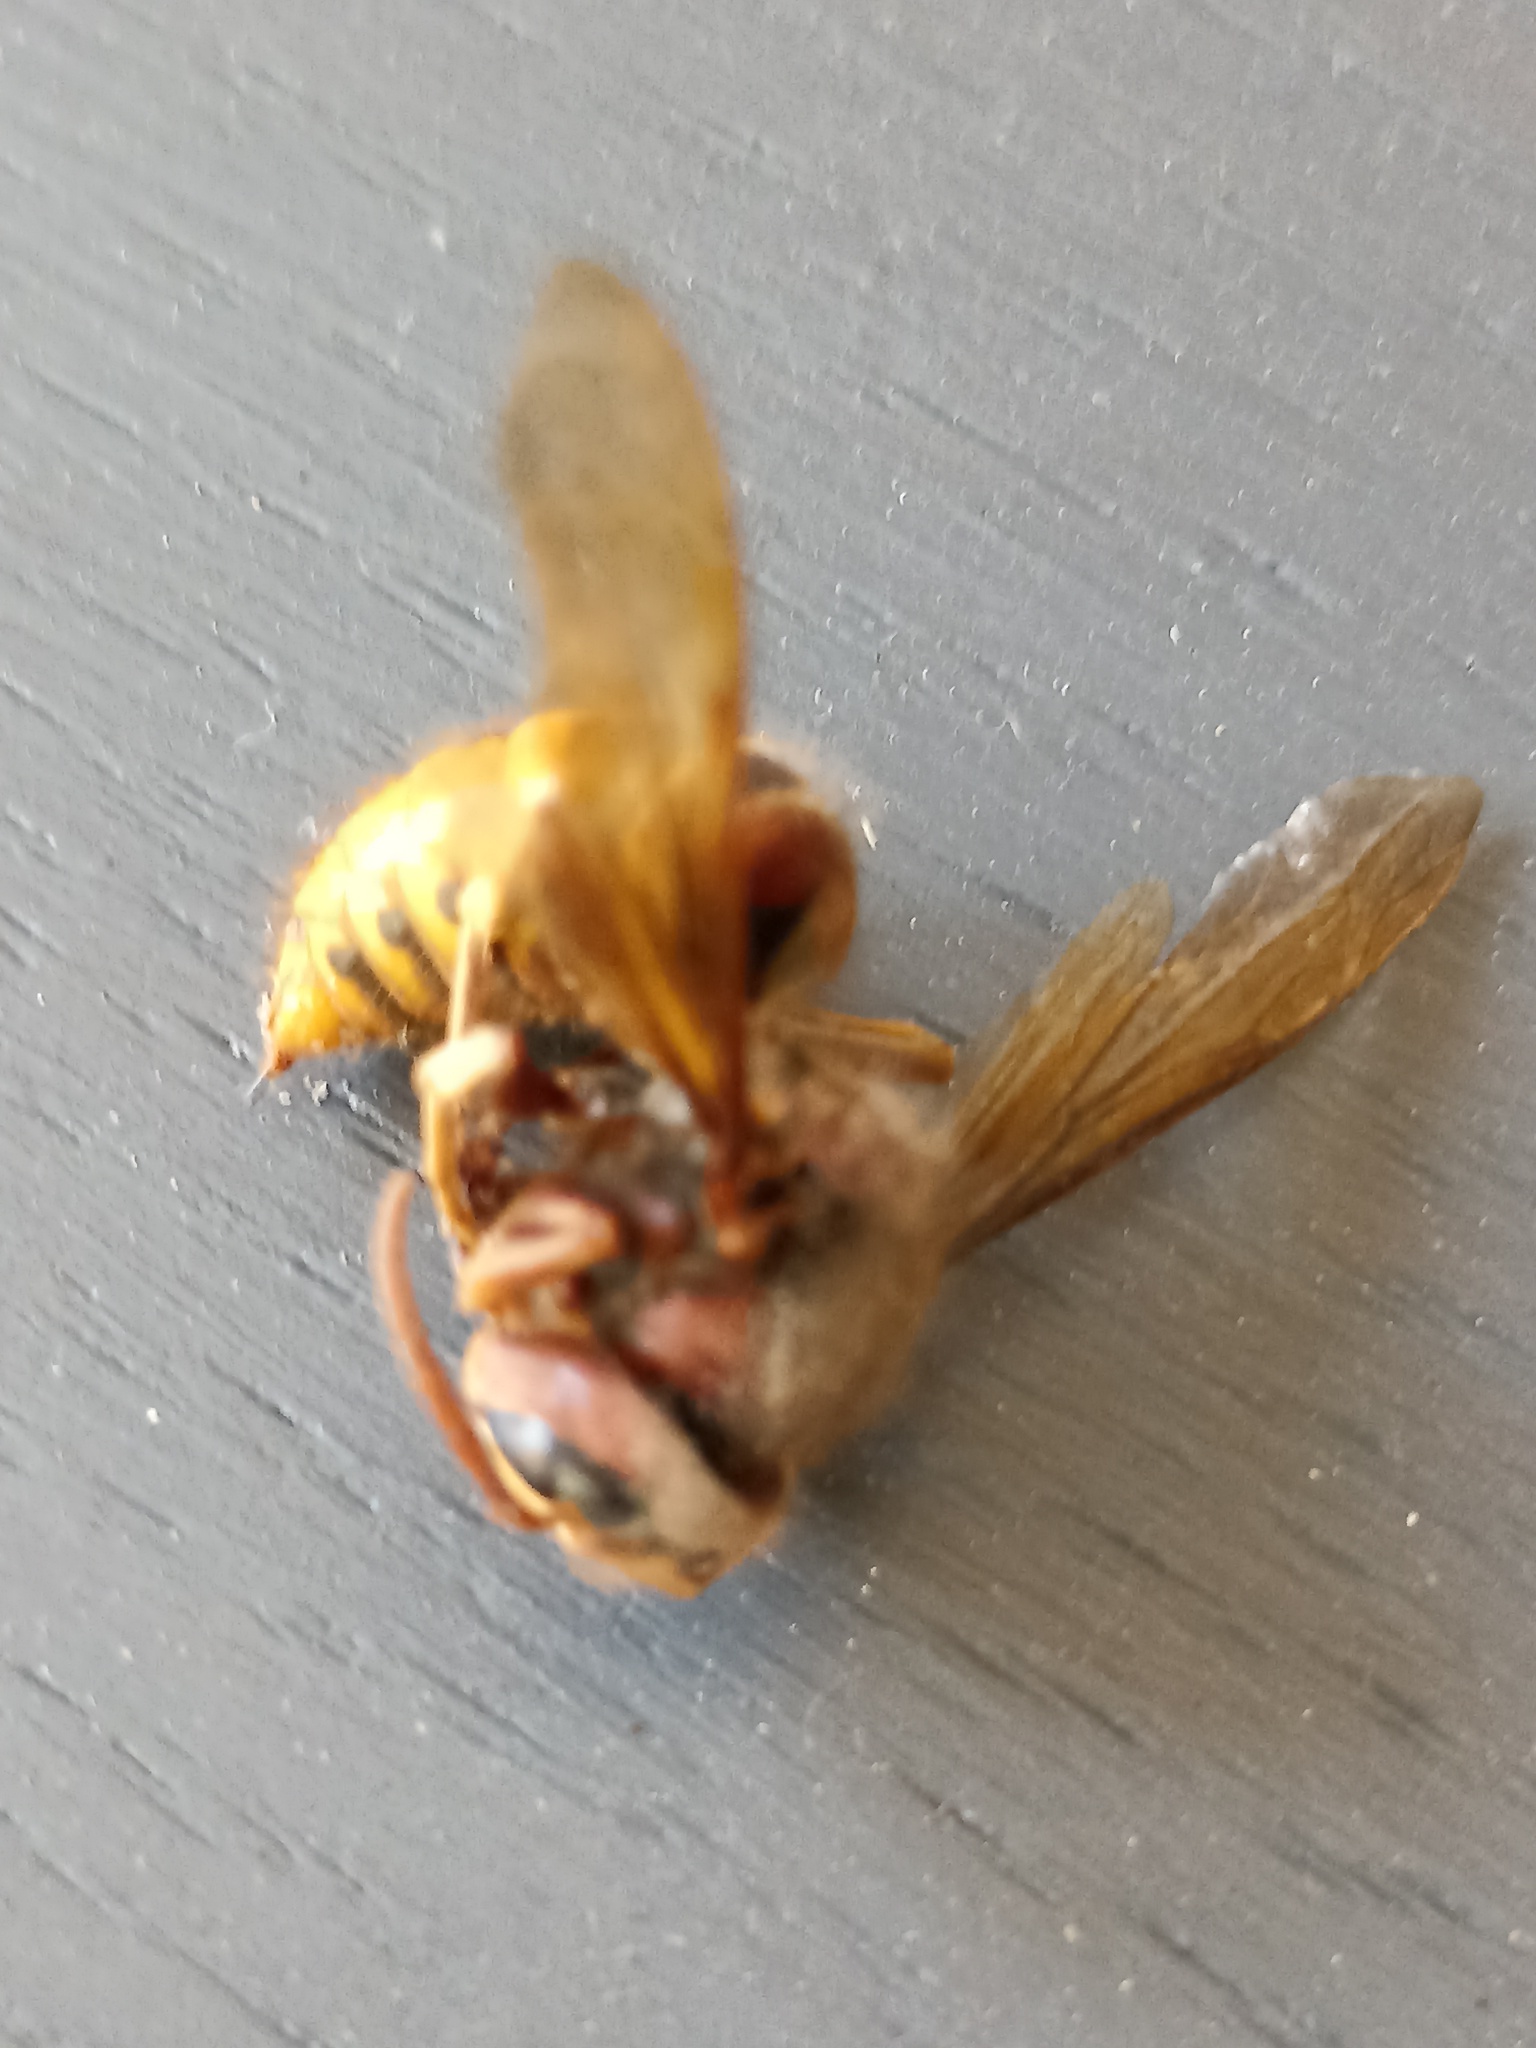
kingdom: Animalia
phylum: Arthropoda
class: Insecta
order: Hymenoptera
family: Vespidae
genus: Vespa
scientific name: Vespa crabro
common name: Hornet
